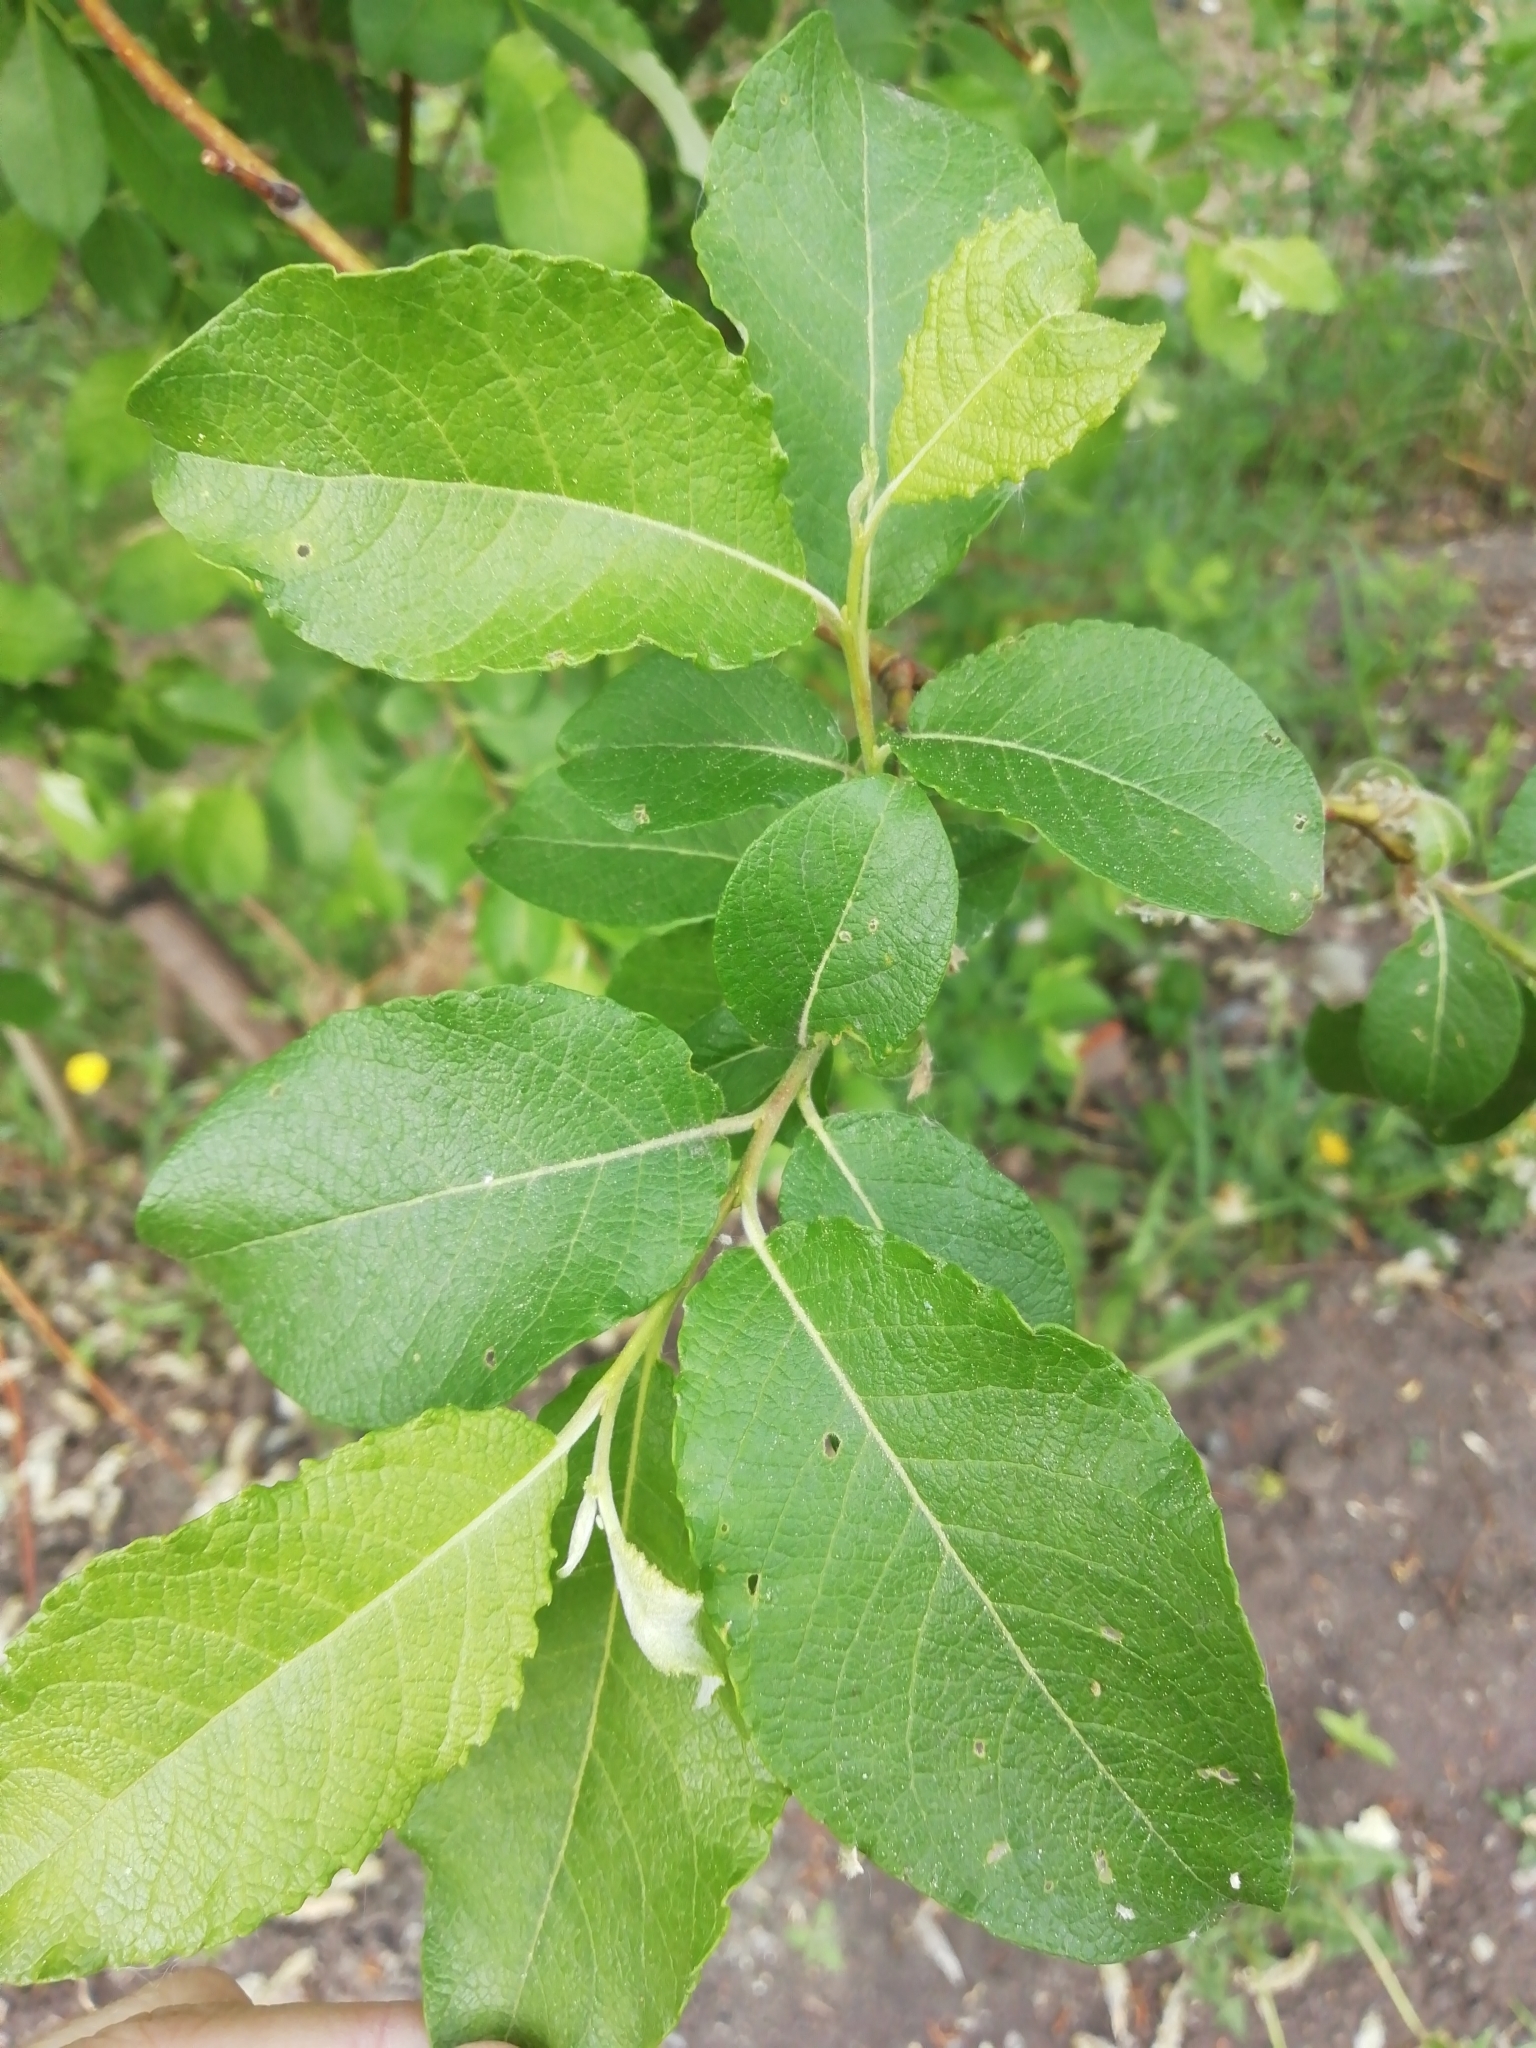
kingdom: Plantae
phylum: Tracheophyta
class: Magnoliopsida
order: Malpighiales
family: Salicaceae
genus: Salix
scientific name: Salix caprea
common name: Goat willow
